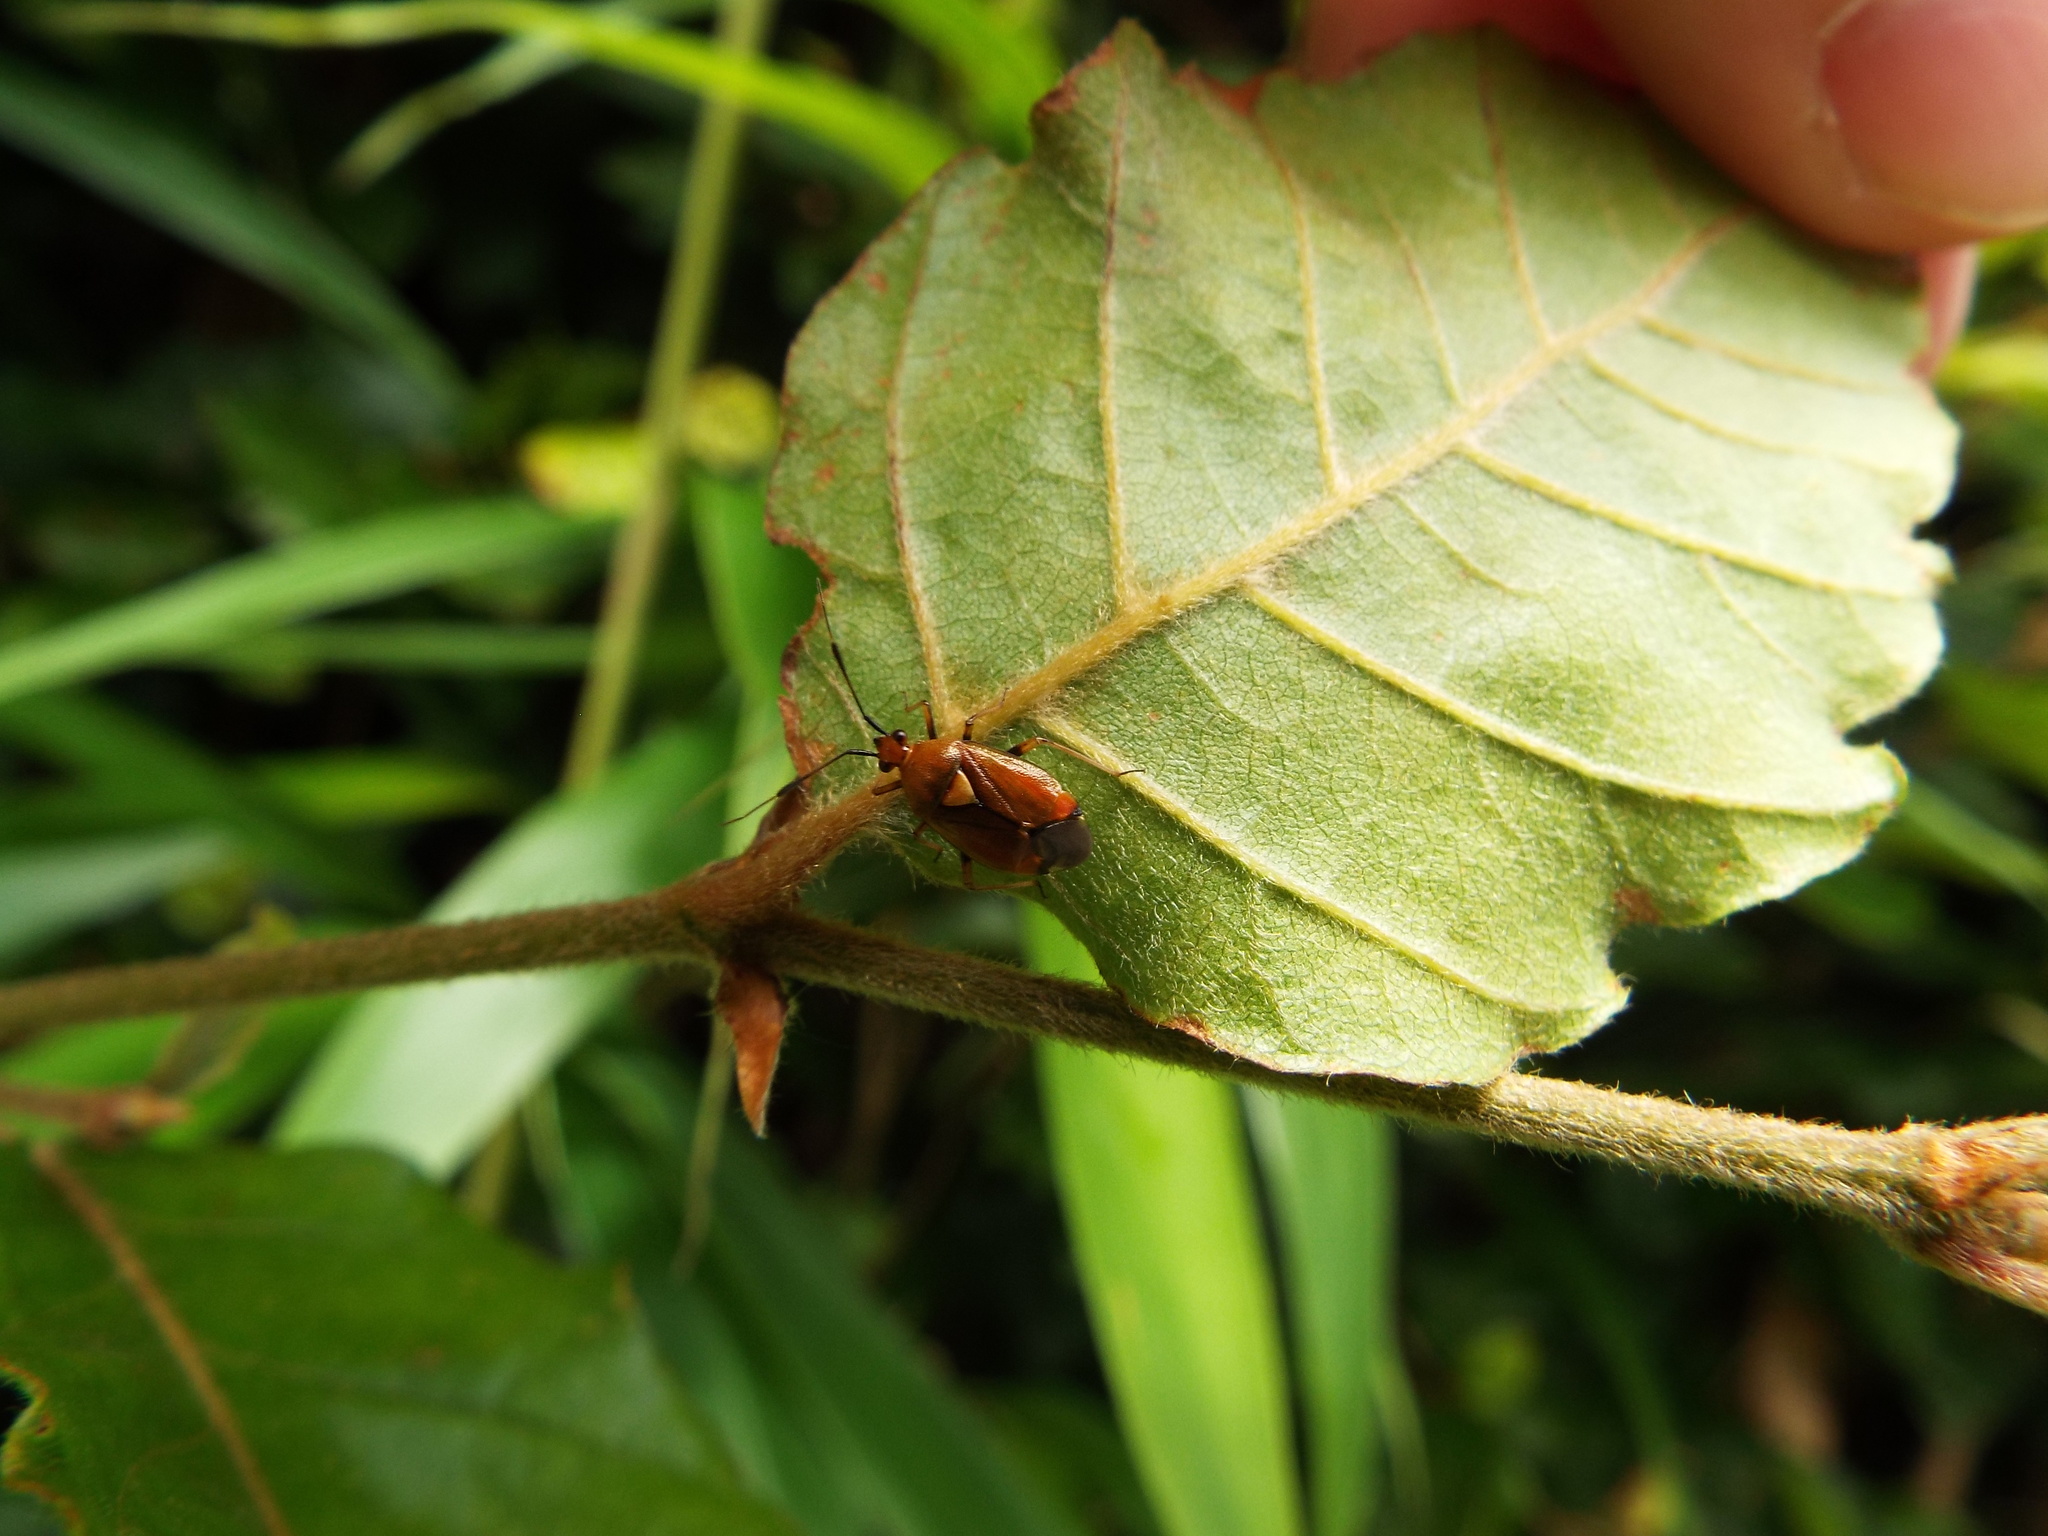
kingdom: Animalia
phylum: Arthropoda
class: Insecta
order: Hemiptera
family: Miridae
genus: Deraeocoris
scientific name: Deraeocoris ruber
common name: Plant bug
